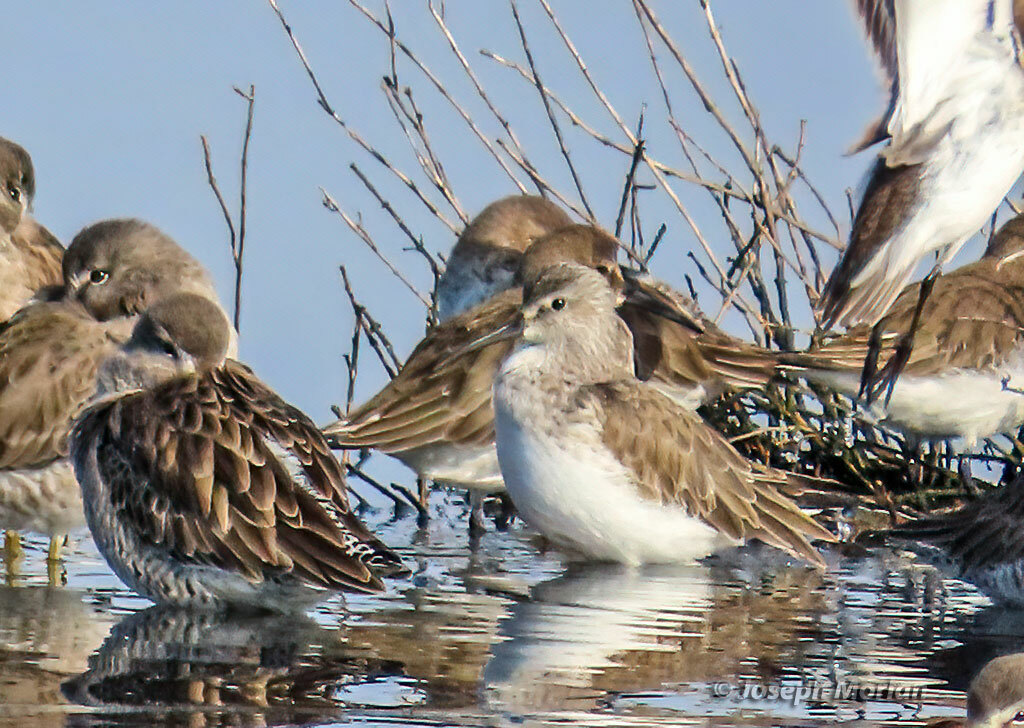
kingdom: Animalia
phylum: Chordata
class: Aves
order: Charadriiformes
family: Scolopacidae
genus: Calidris
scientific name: Calidris ferruginea
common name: Curlew sandpiper
